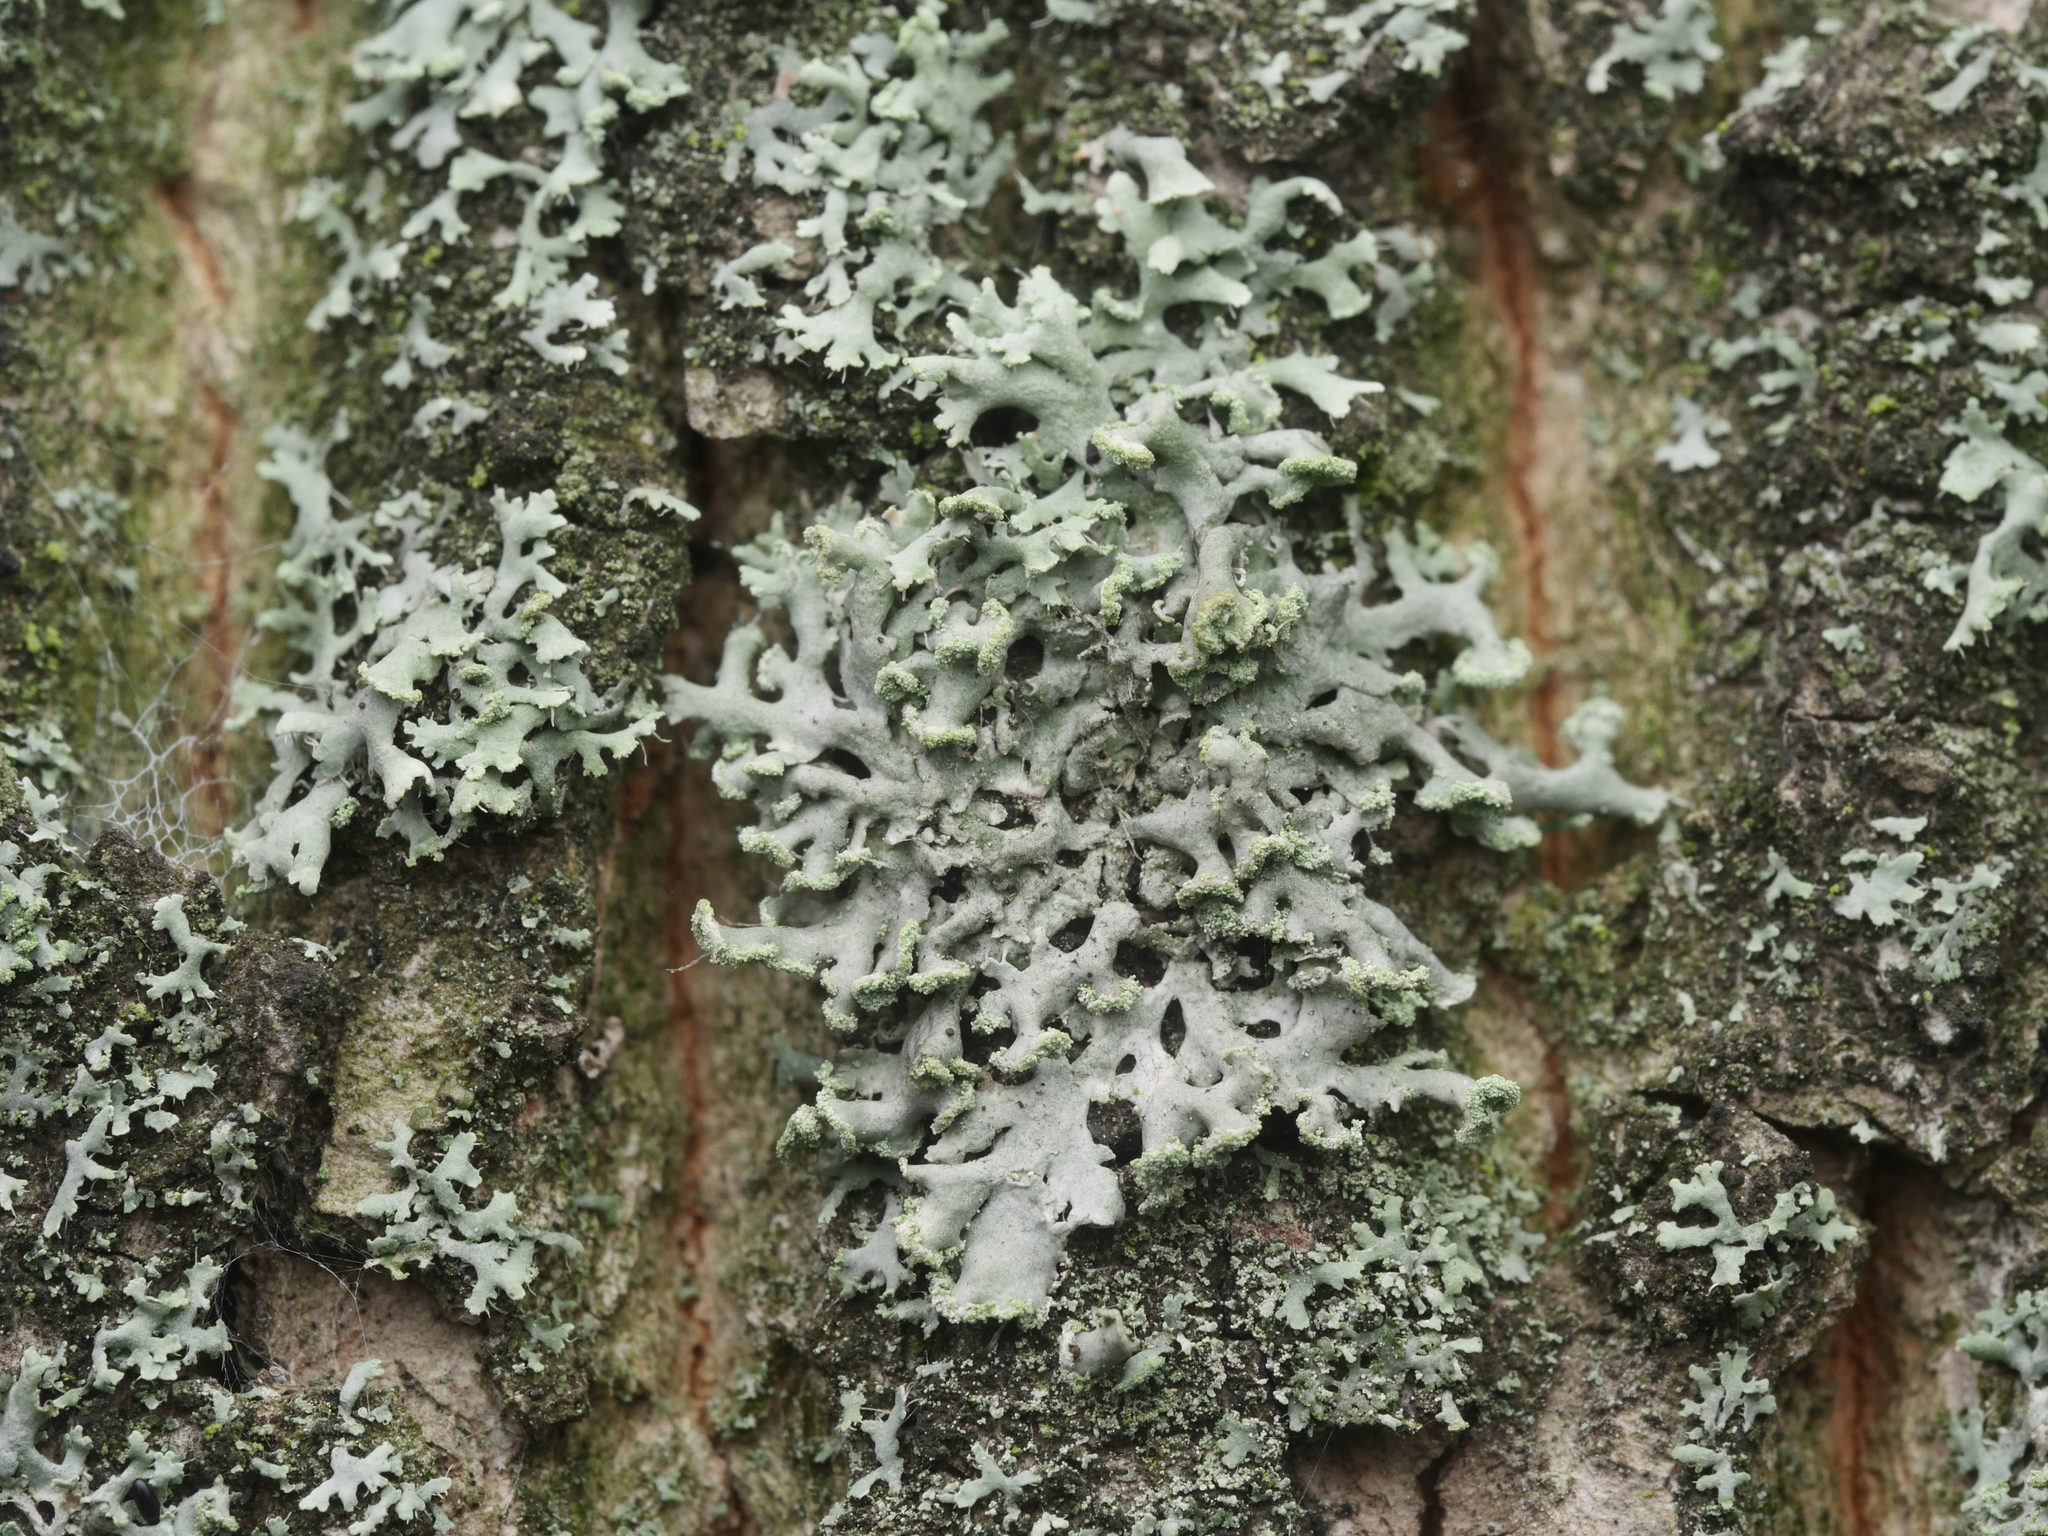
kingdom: Fungi
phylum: Ascomycota
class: Lecanoromycetes
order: Caliciales
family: Physciaceae
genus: Physcia
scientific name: Physcia tenella
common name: Fringed rosette lichen
